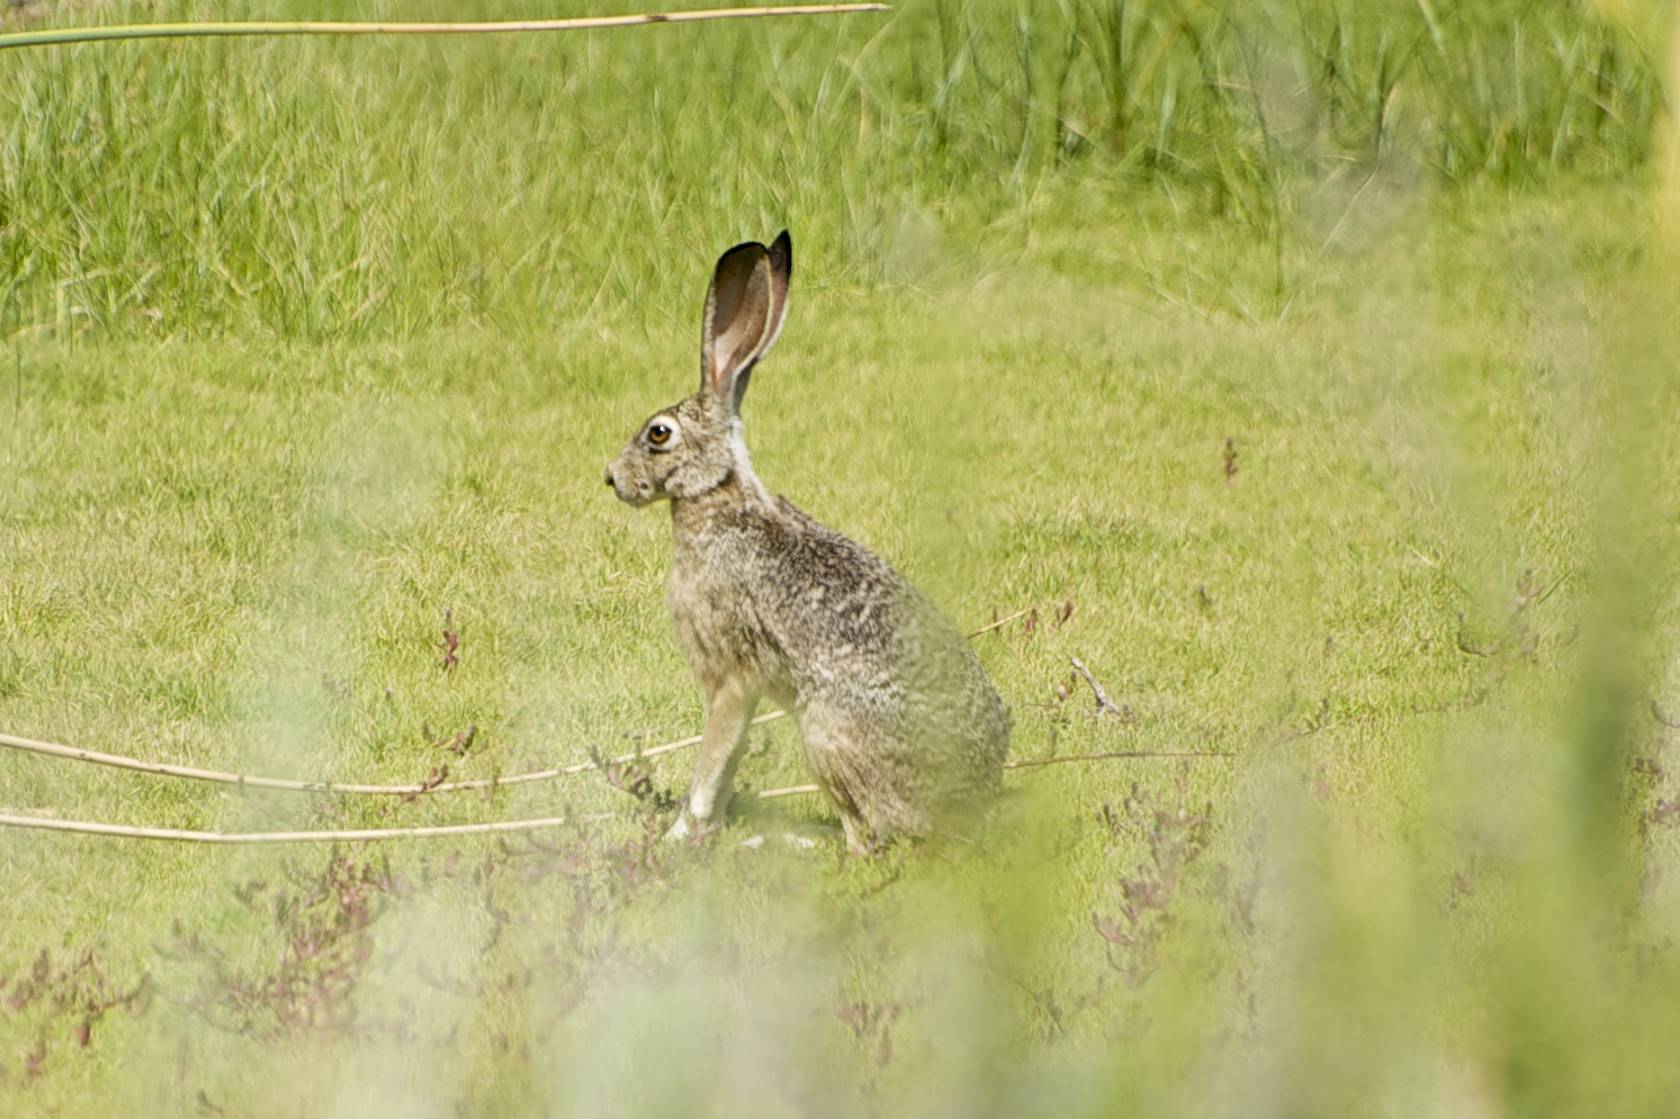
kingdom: Animalia
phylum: Chordata
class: Mammalia
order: Lagomorpha
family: Leporidae
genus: Lepus
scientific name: Lepus californicus
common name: Black-tailed jackrabbit
